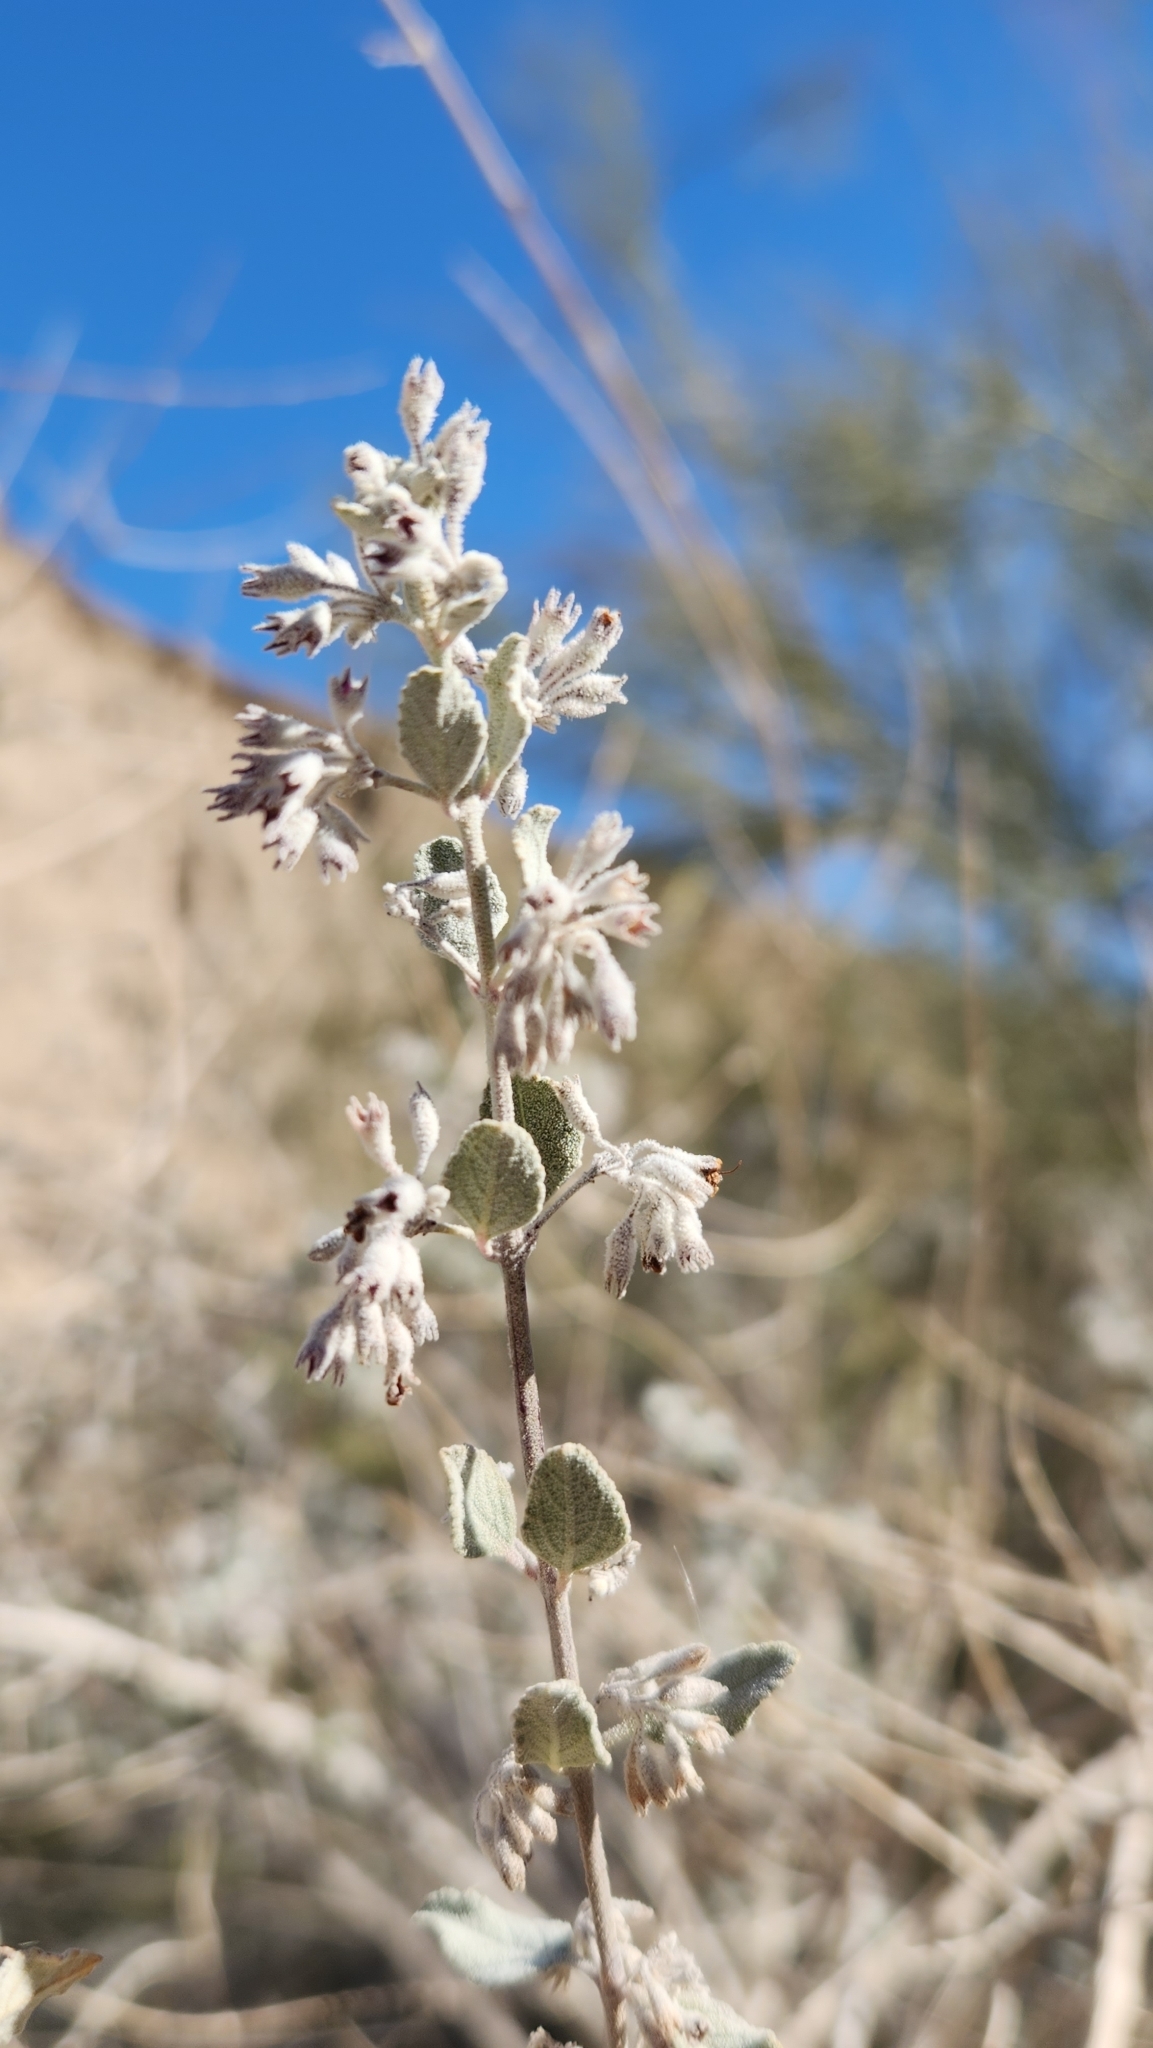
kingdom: Plantae
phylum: Tracheophyta
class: Magnoliopsida
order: Lamiales
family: Lamiaceae
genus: Condea
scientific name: Condea emoryi
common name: Chia
